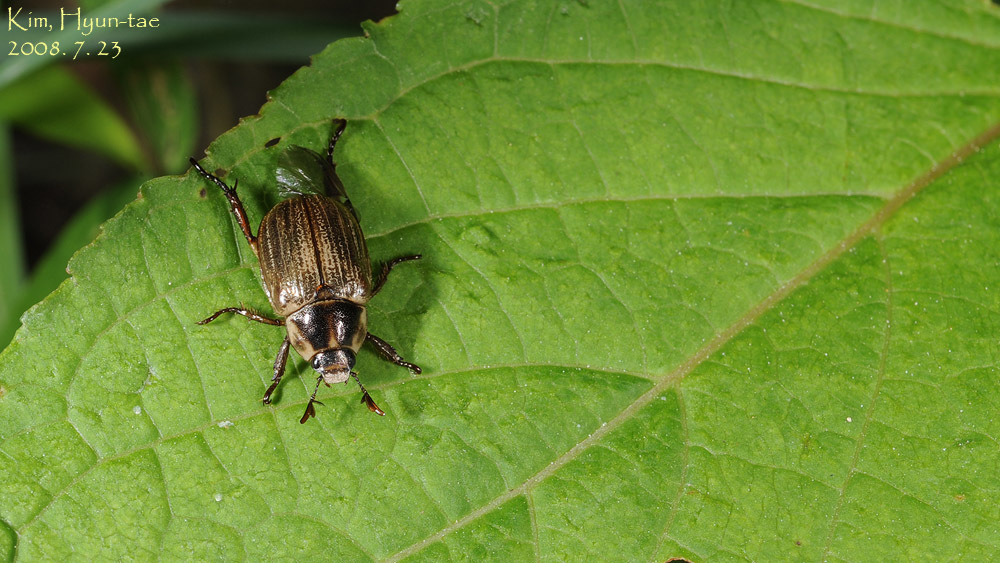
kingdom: Animalia
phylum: Arthropoda
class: Insecta
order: Coleoptera
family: Scarabaeidae
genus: Exomala
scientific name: Exomala pallidipennis
